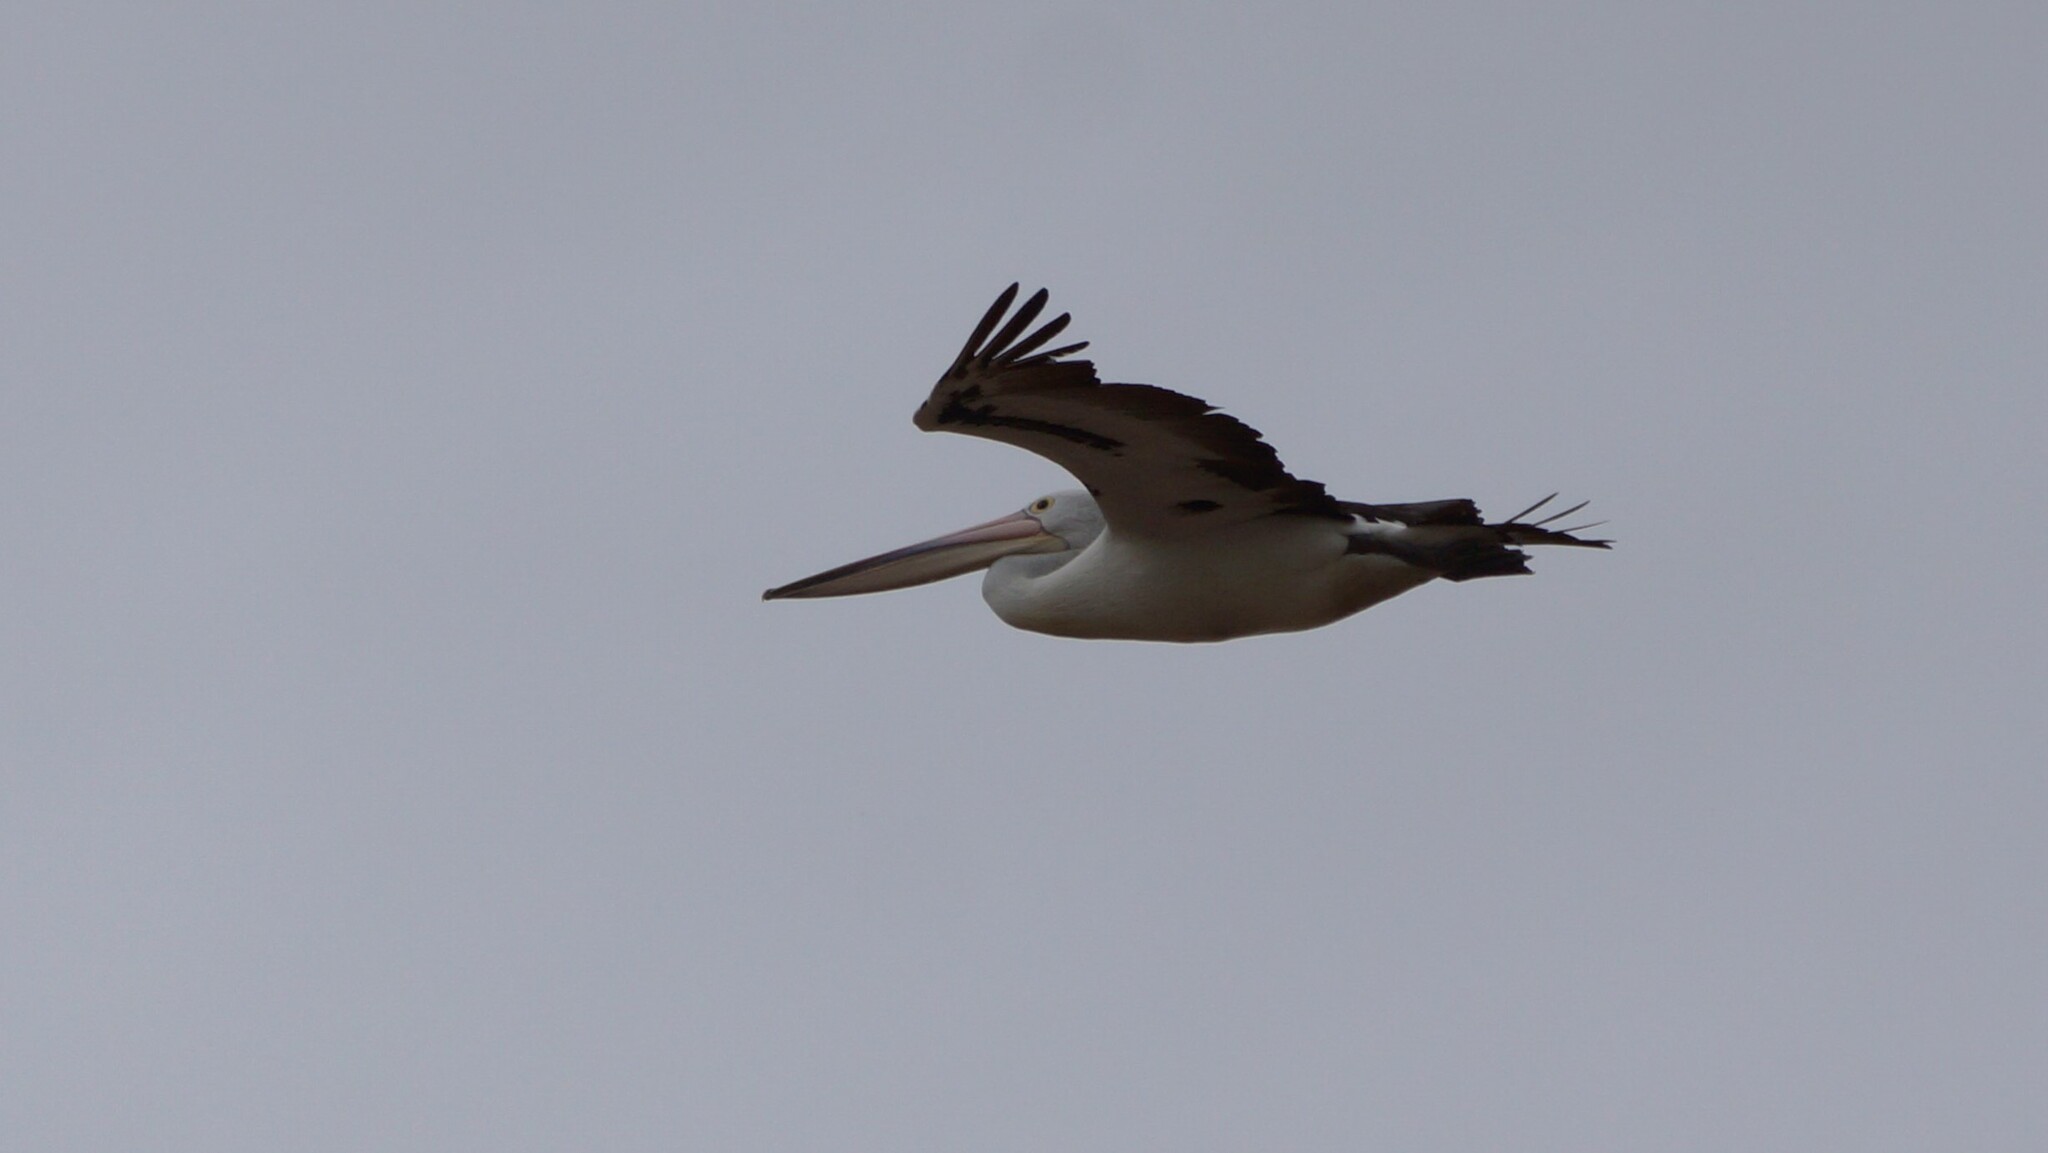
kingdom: Animalia
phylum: Chordata
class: Aves
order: Pelecaniformes
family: Pelecanidae
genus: Pelecanus
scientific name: Pelecanus conspicillatus
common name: Australian pelican
